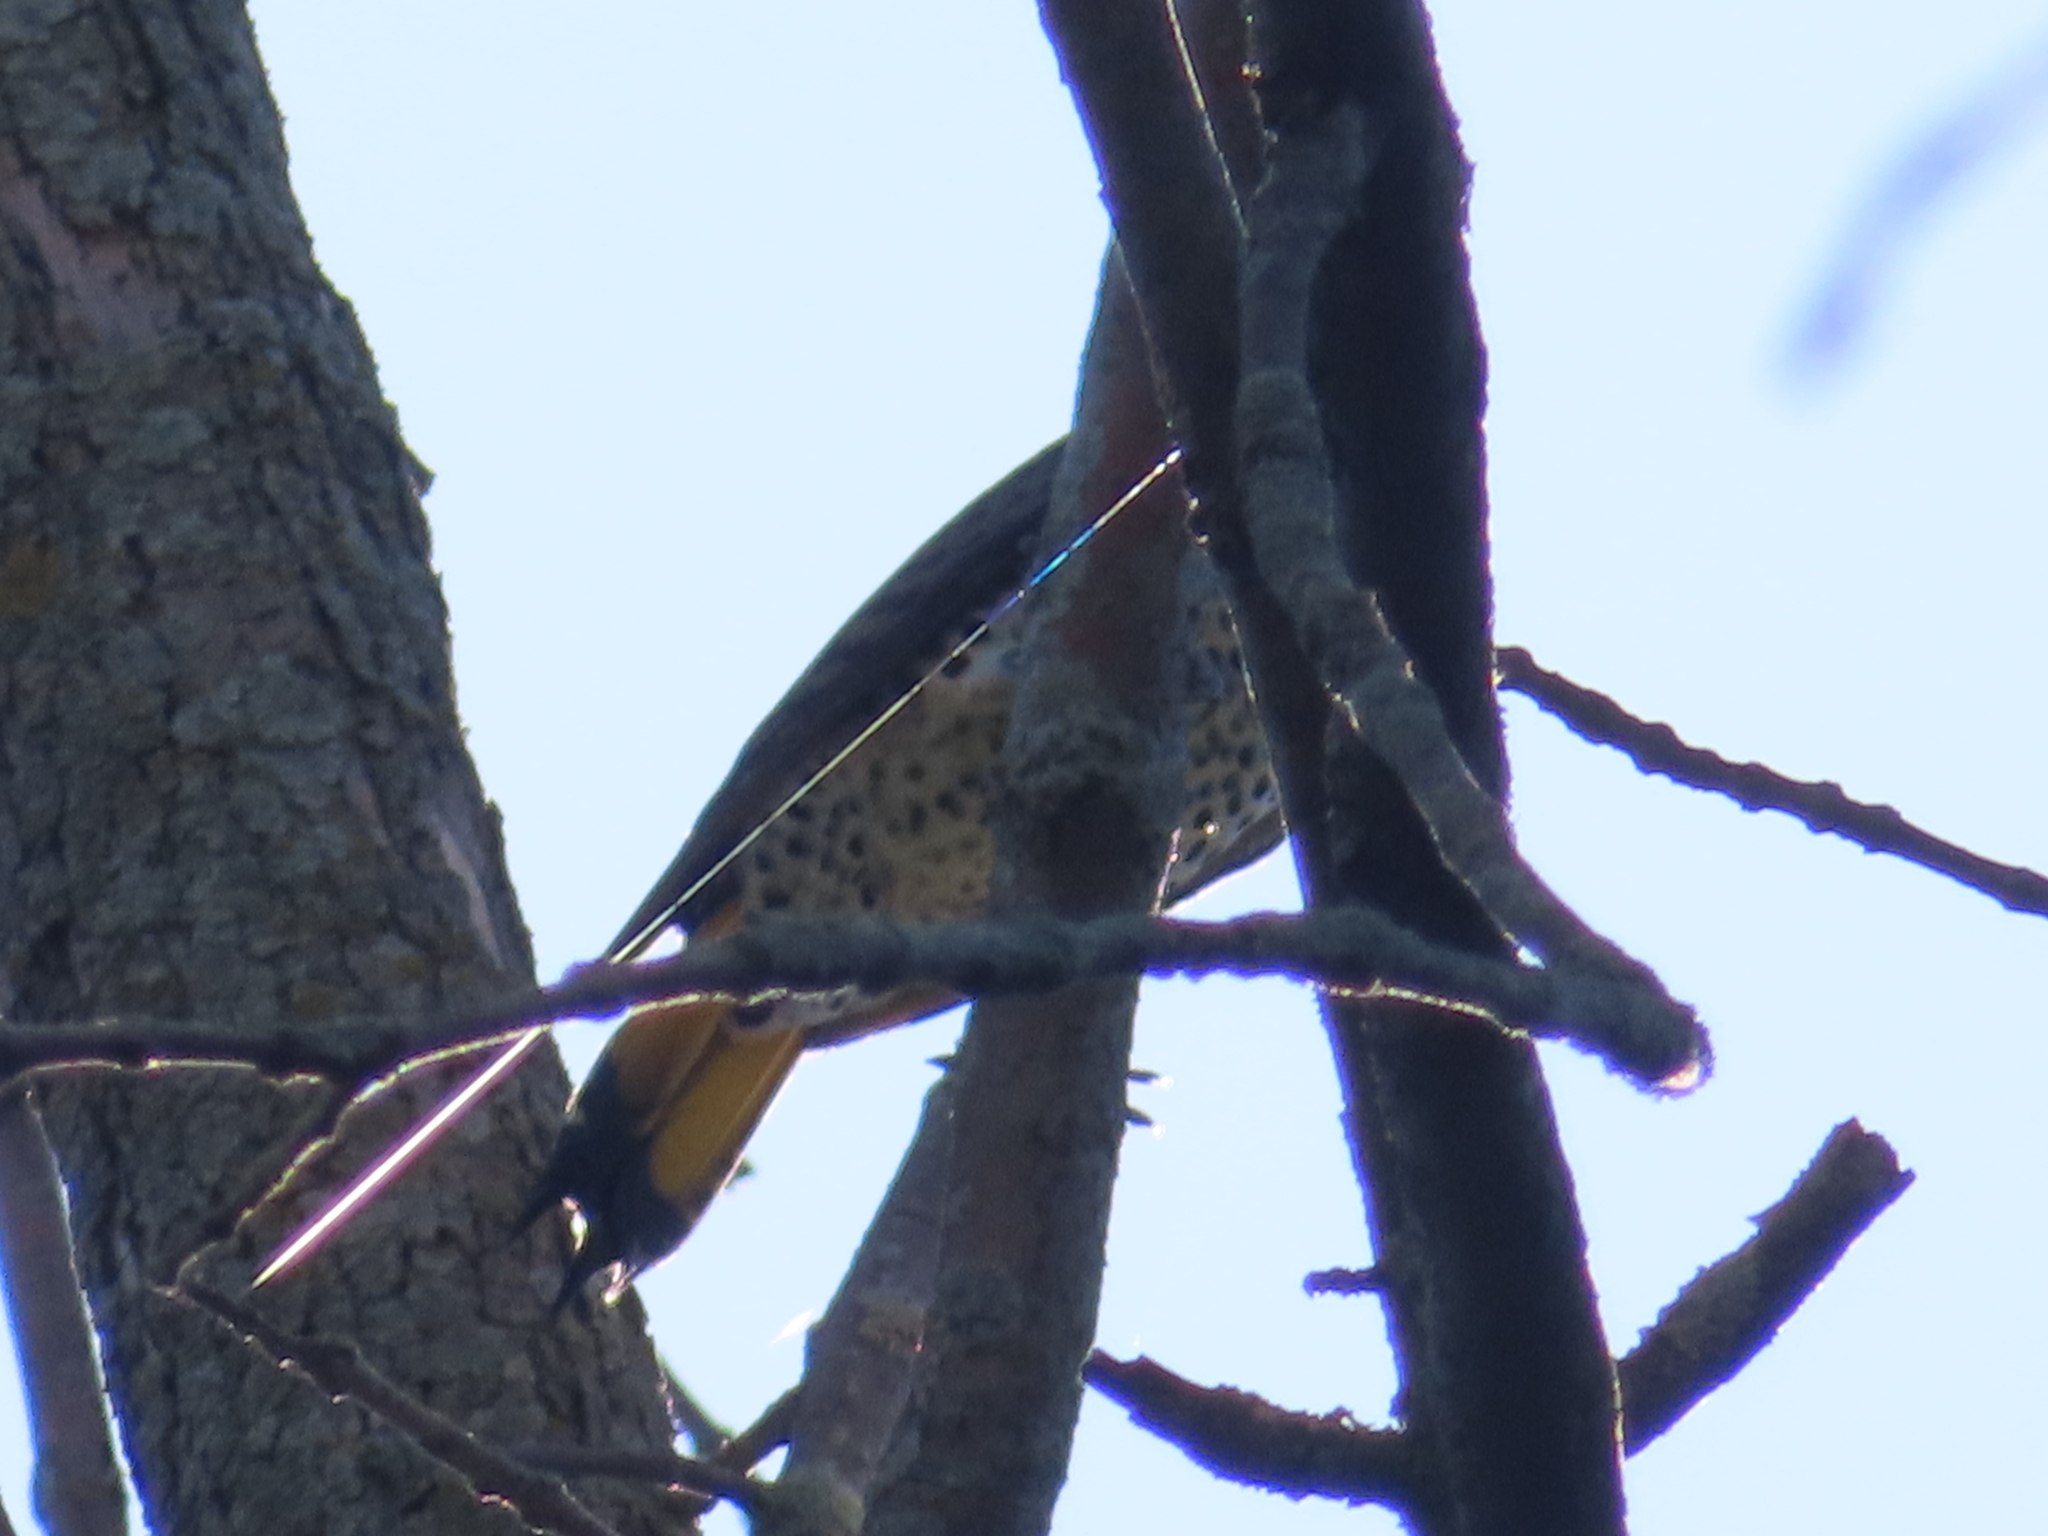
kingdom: Animalia
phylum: Chordata
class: Aves
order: Piciformes
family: Picidae
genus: Colaptes
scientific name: Colaptes auratus
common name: Northern flicker
